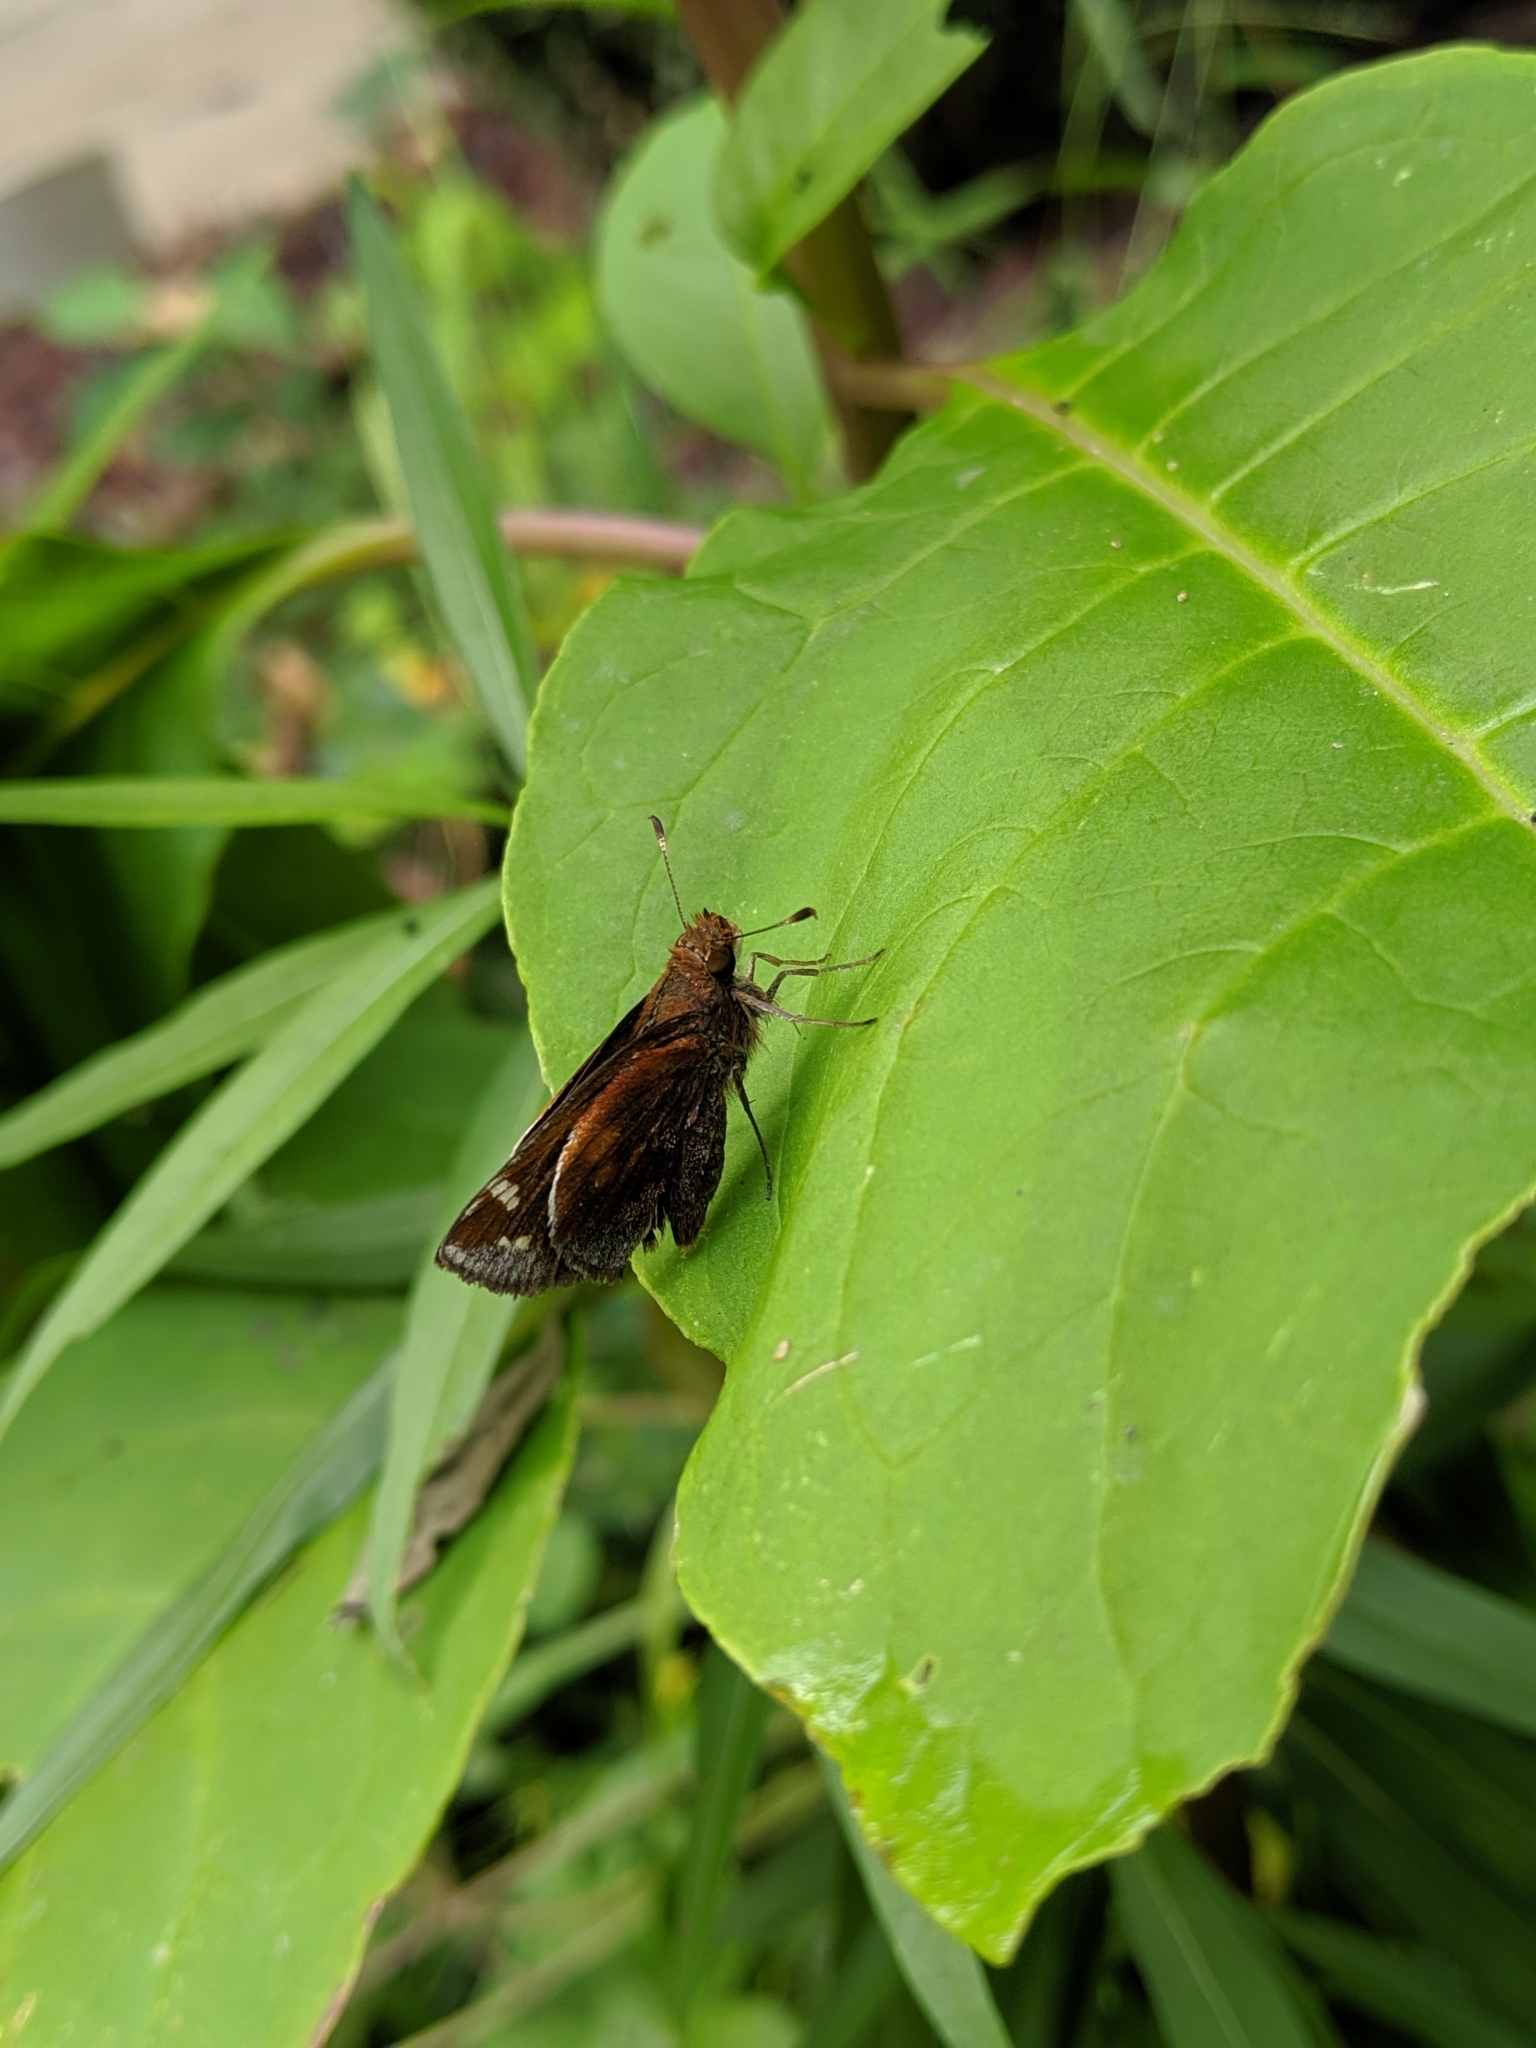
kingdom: Animalia
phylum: Arthropoda
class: Insecta
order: Lepidoptera
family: Hesperiidae
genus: Lon
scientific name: Lon zabulon
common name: Zabulon skipper
